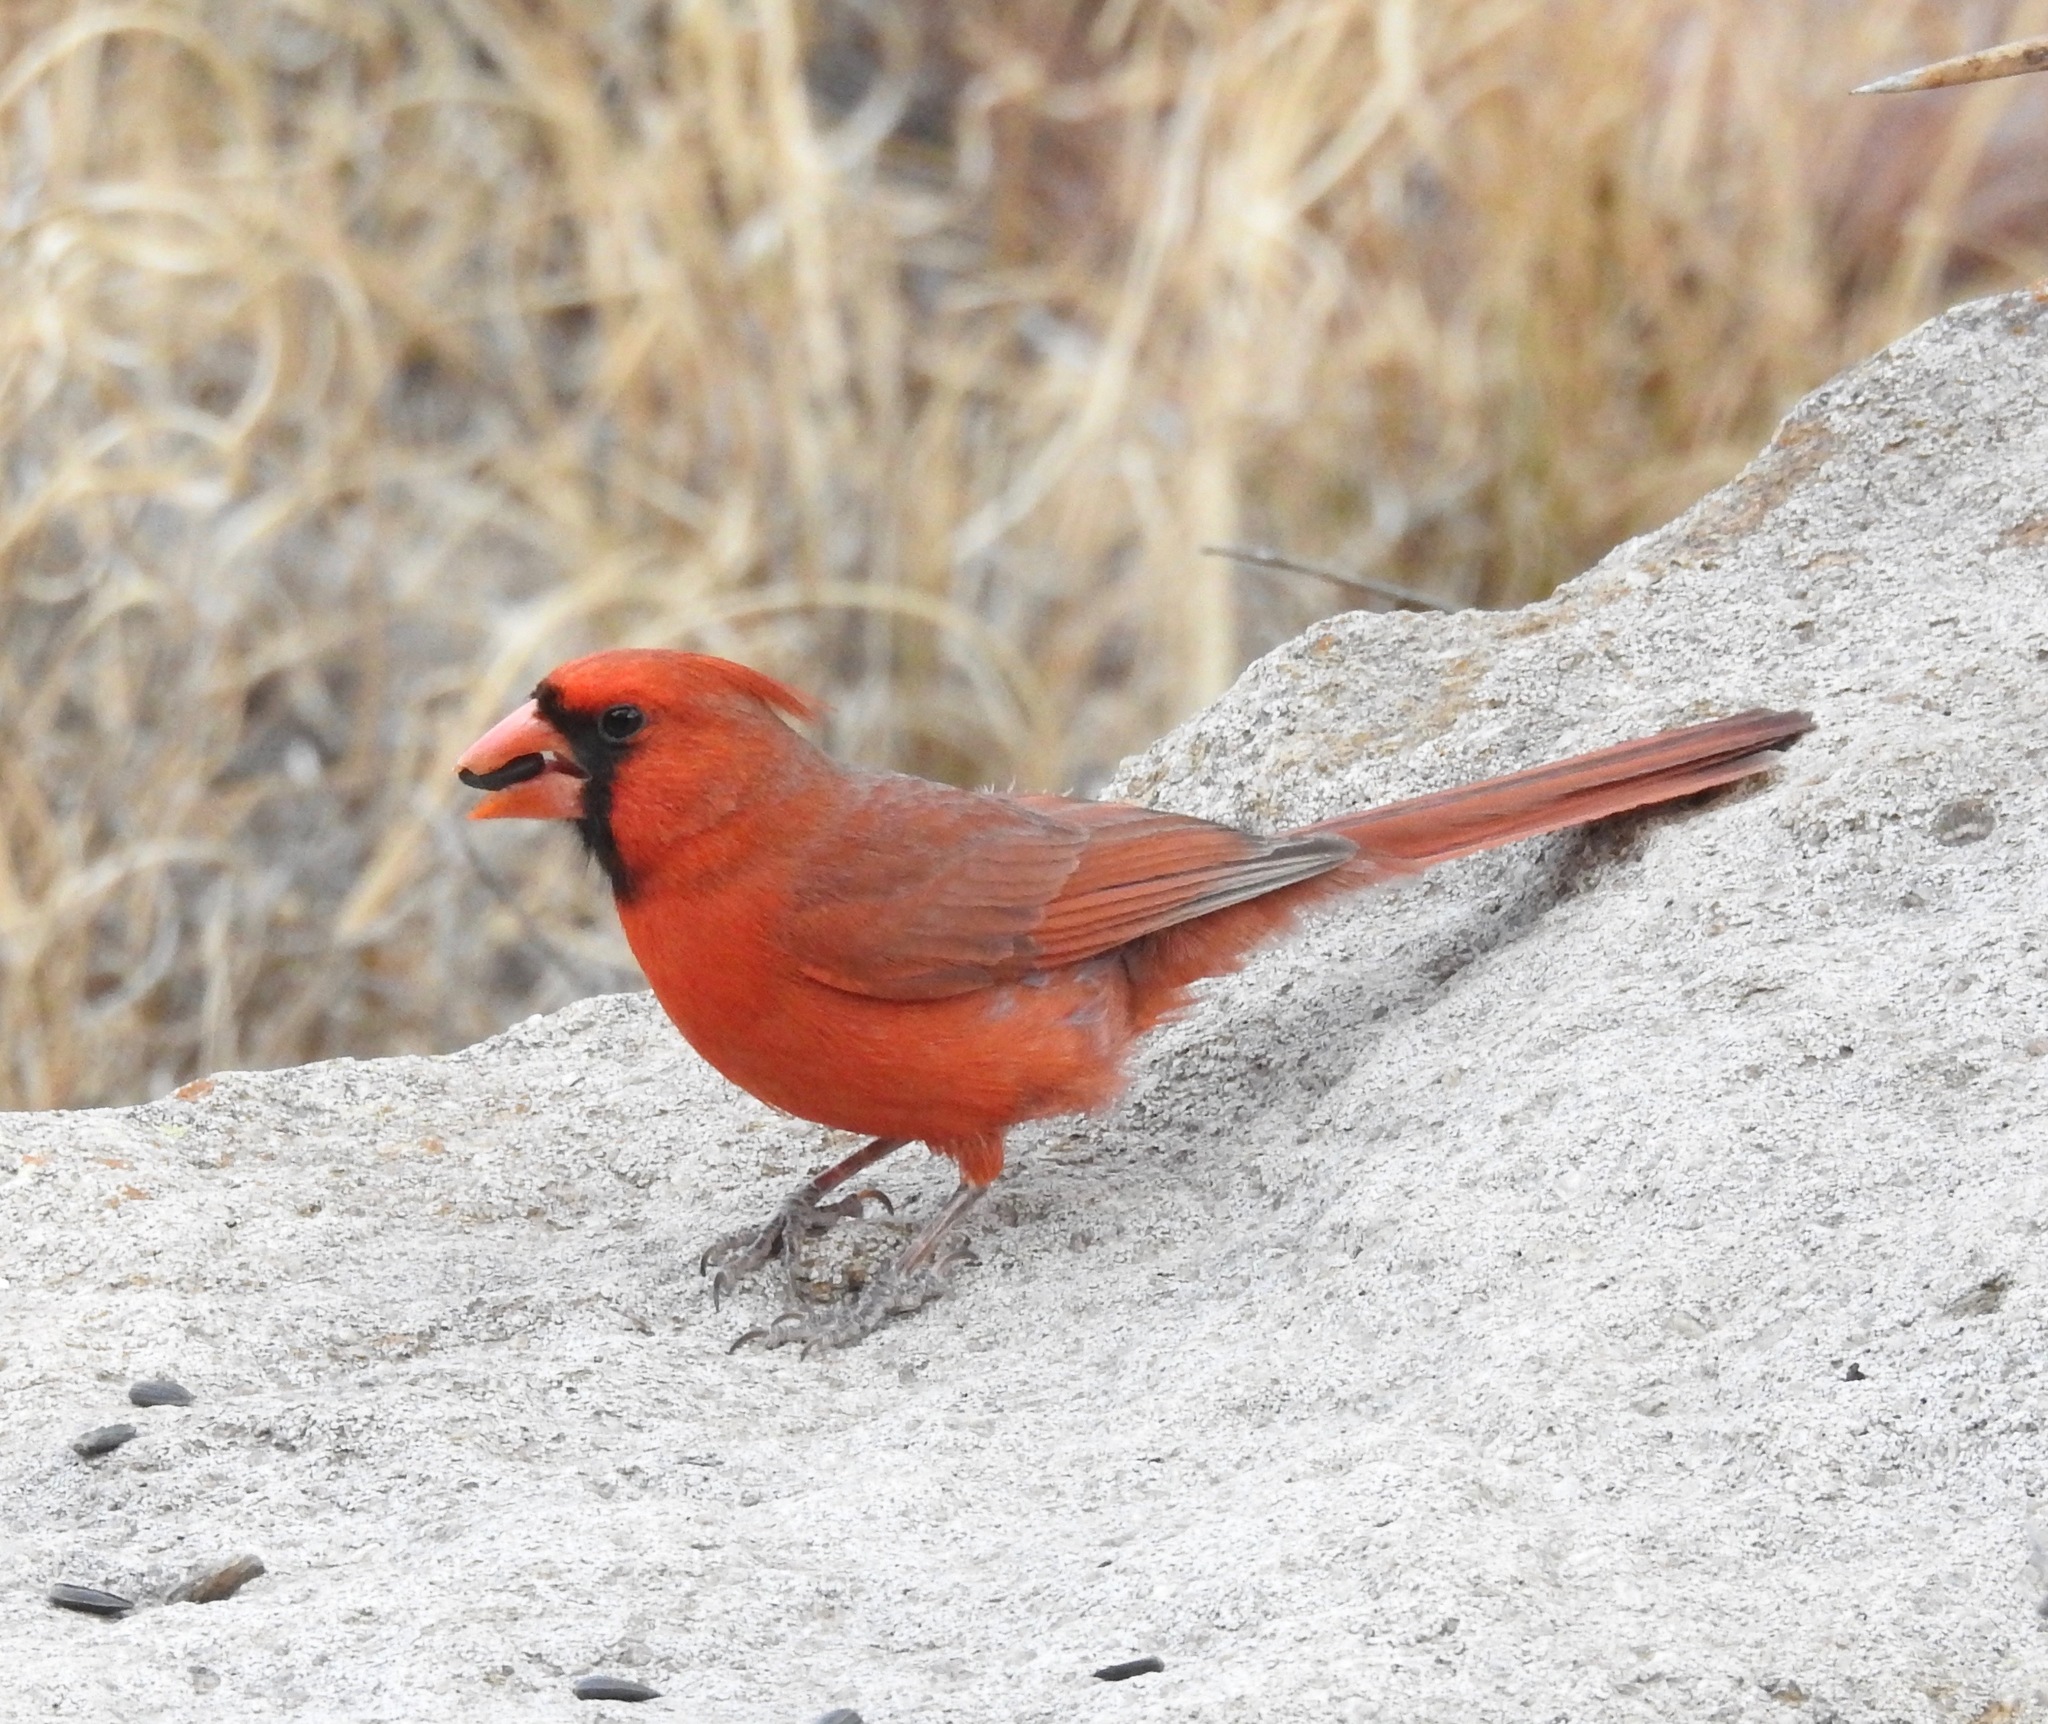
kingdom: Animalia
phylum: Chordata
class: Aves
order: Passeriformes
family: Cardinalidae
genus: Cardinalis
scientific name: Cardinalis cardinalis
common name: Northern cardinal
